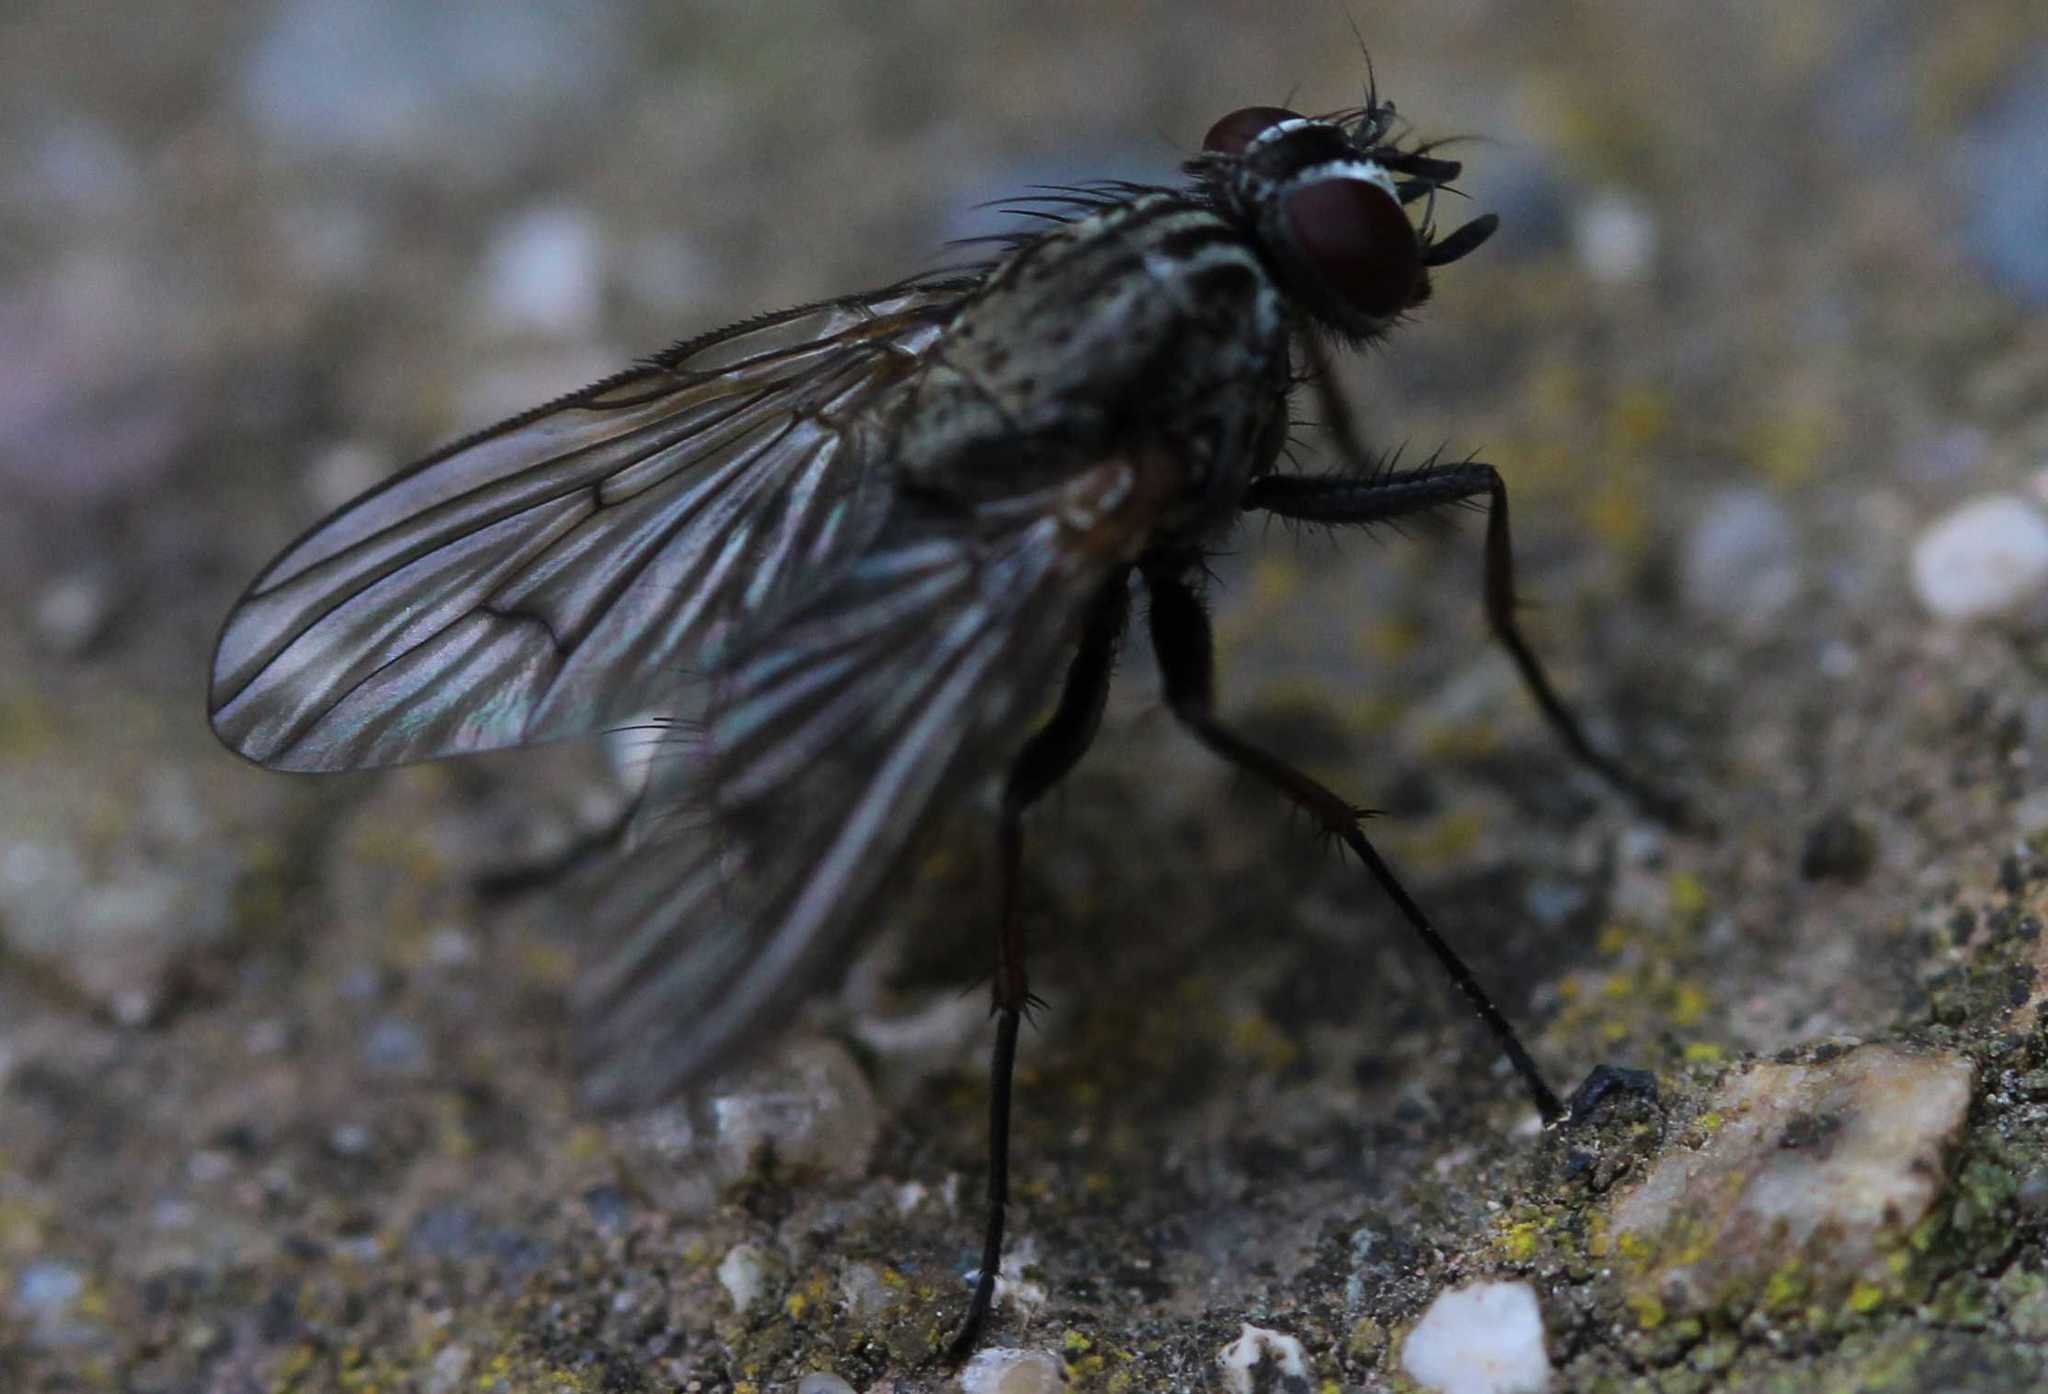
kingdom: Animalia
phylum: Arthropoda
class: Insecta
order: Diptera
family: Muscidae
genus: Phaonia
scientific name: Phaonia palpata
